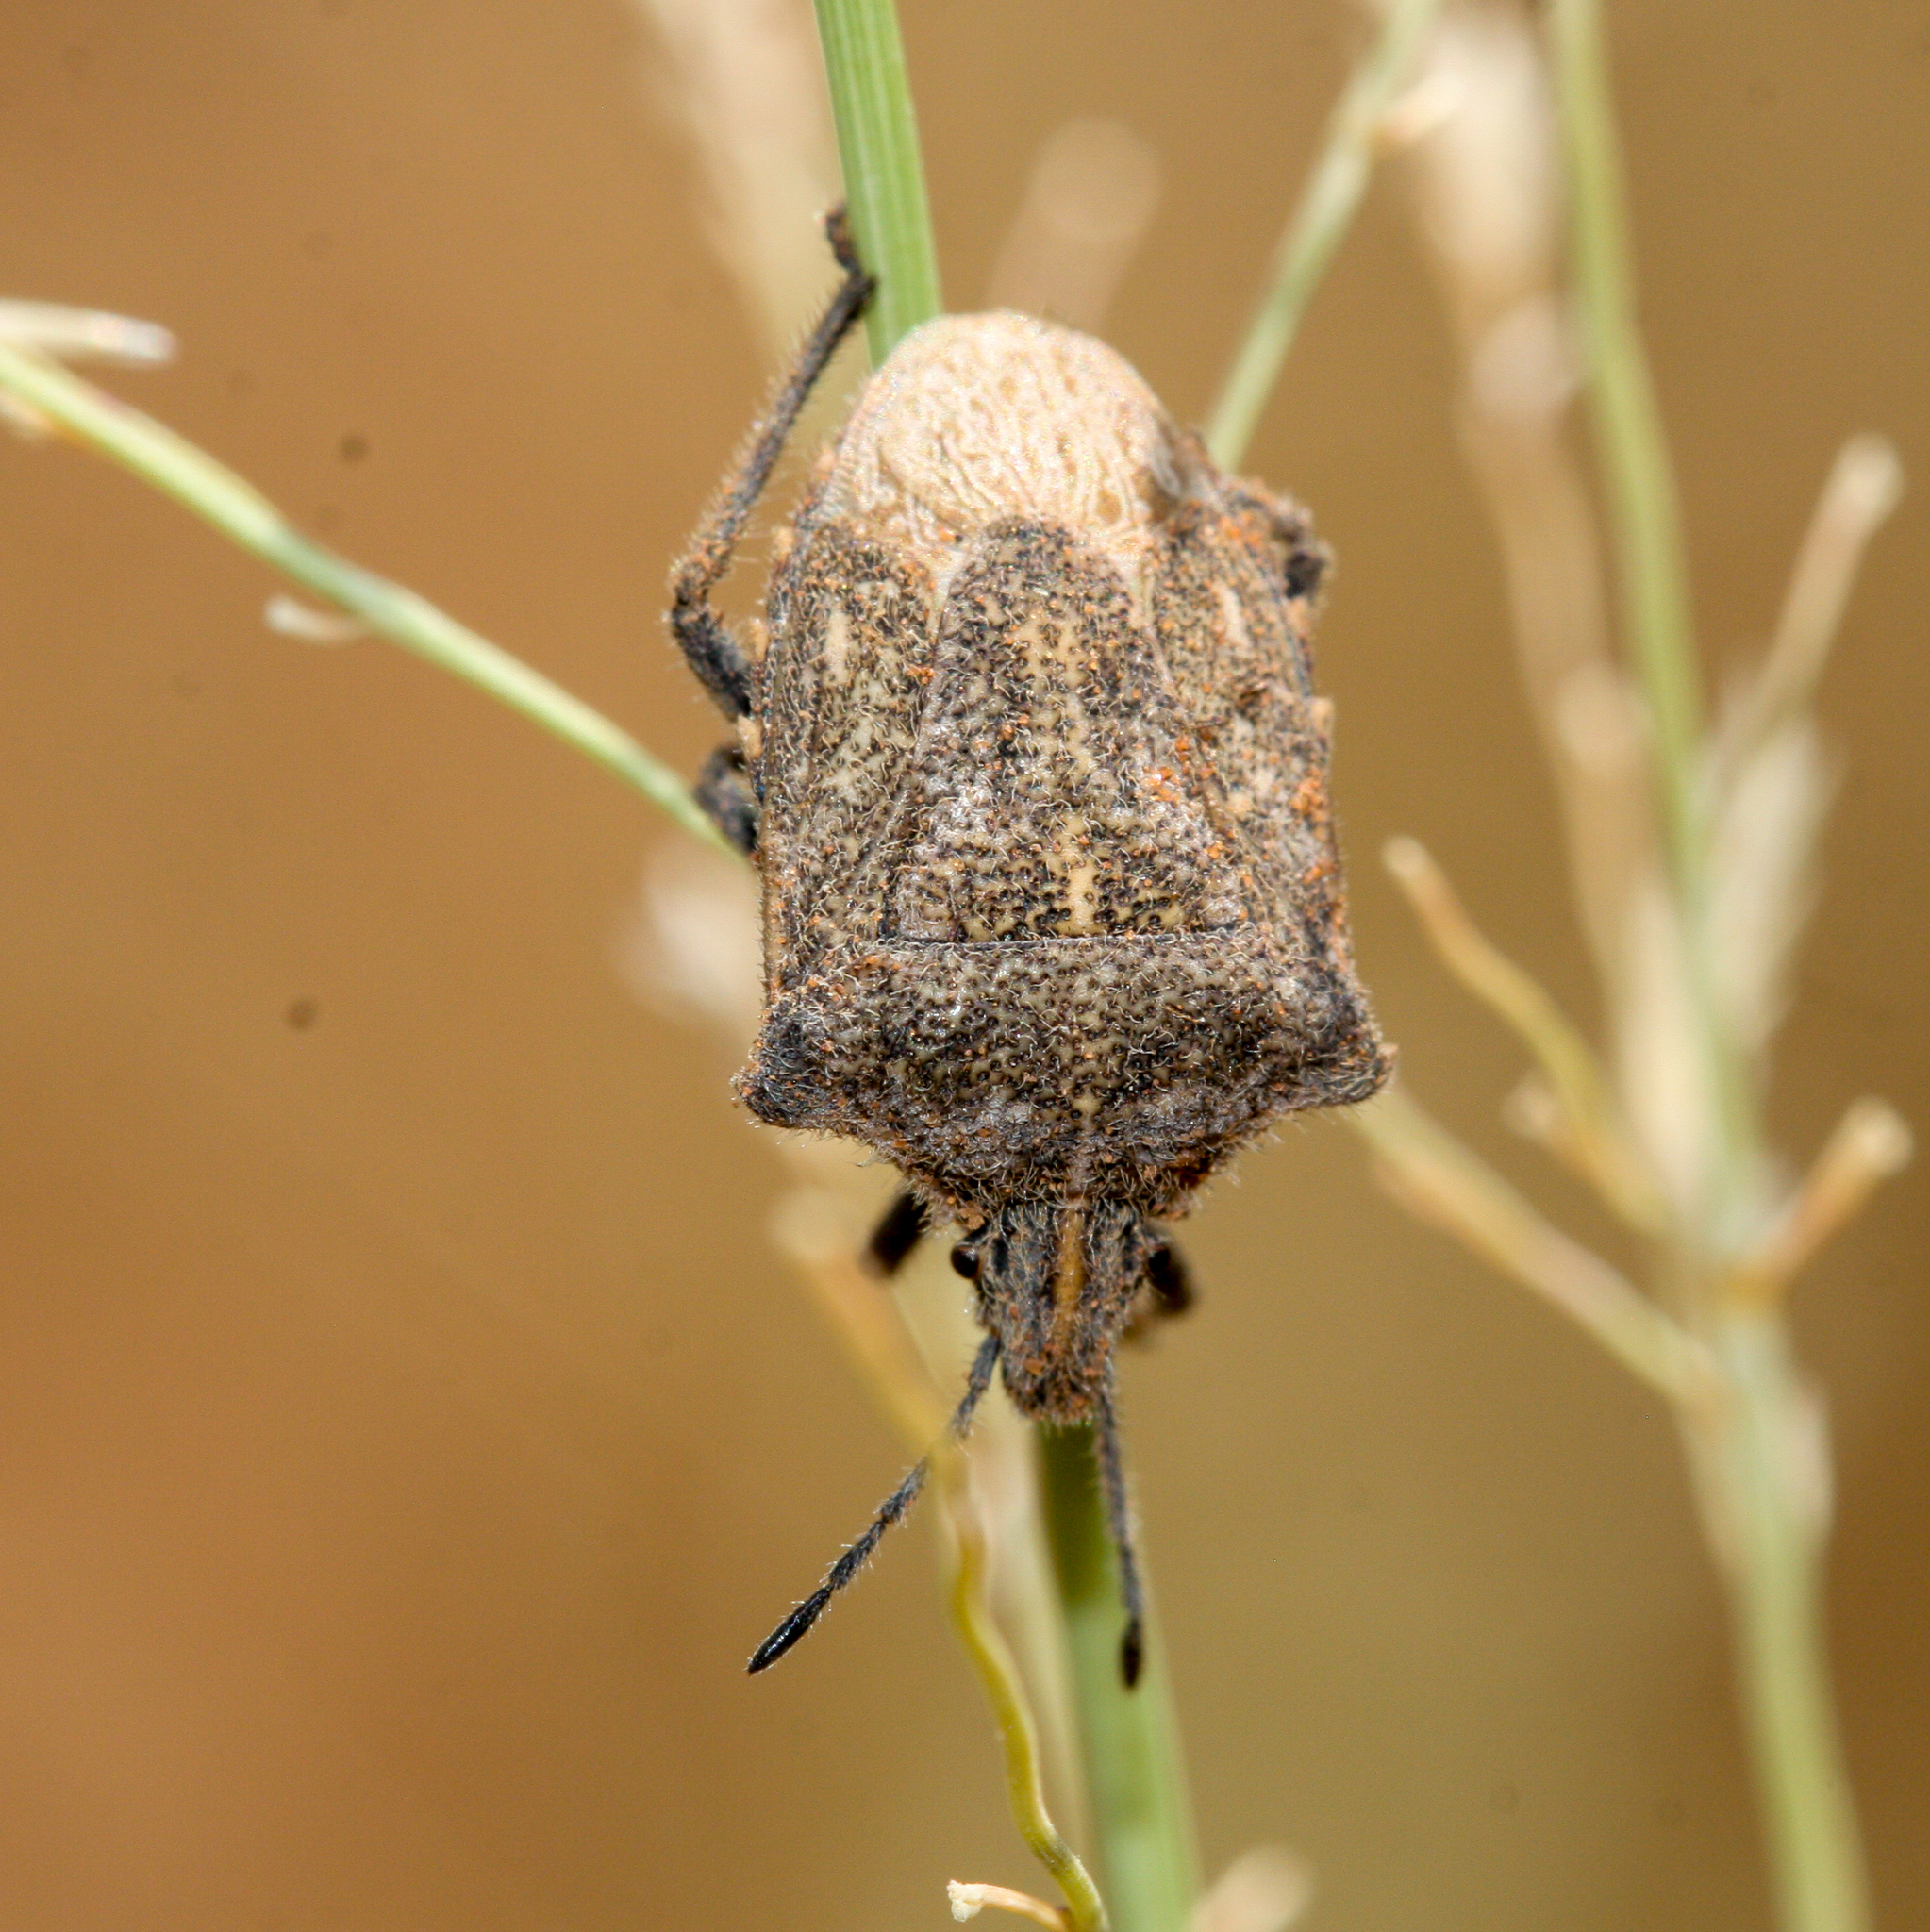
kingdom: Animalia
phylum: Arthropoda
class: Insecta
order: Hemiptera
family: Pentatomidae
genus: Prionosoma
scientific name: Prionosoma podopioides
